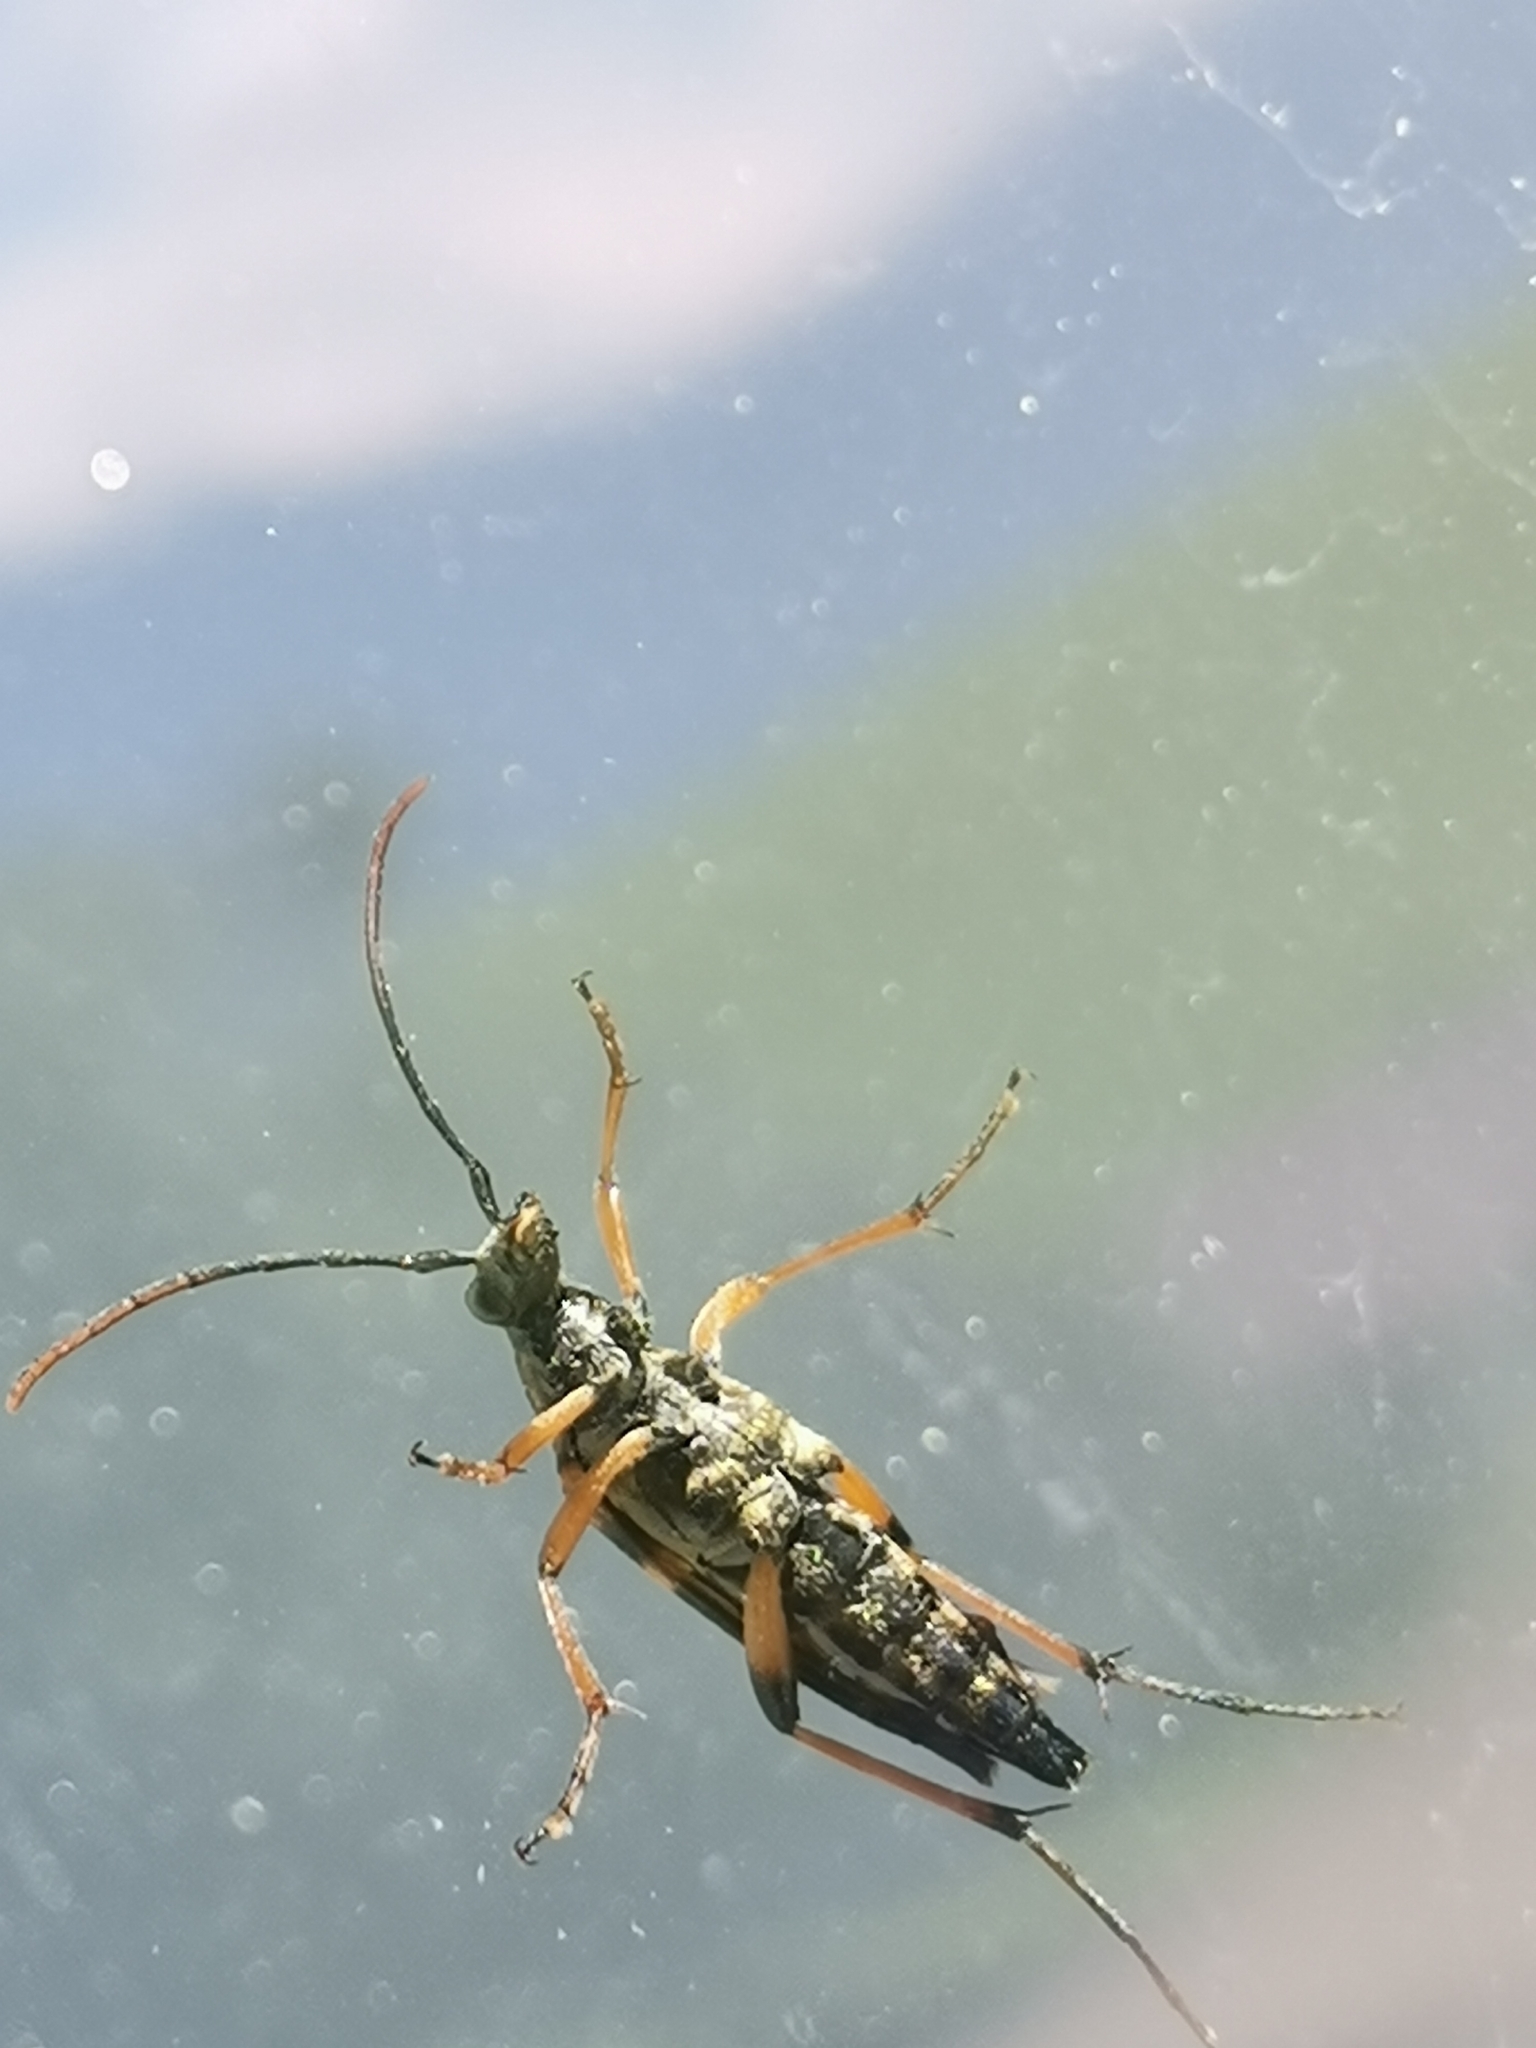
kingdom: Animalia
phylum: Arthropoda
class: Insecta
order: Coleoptera
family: Cerambycidae
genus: Strangalia
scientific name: Strangalia attenuata
